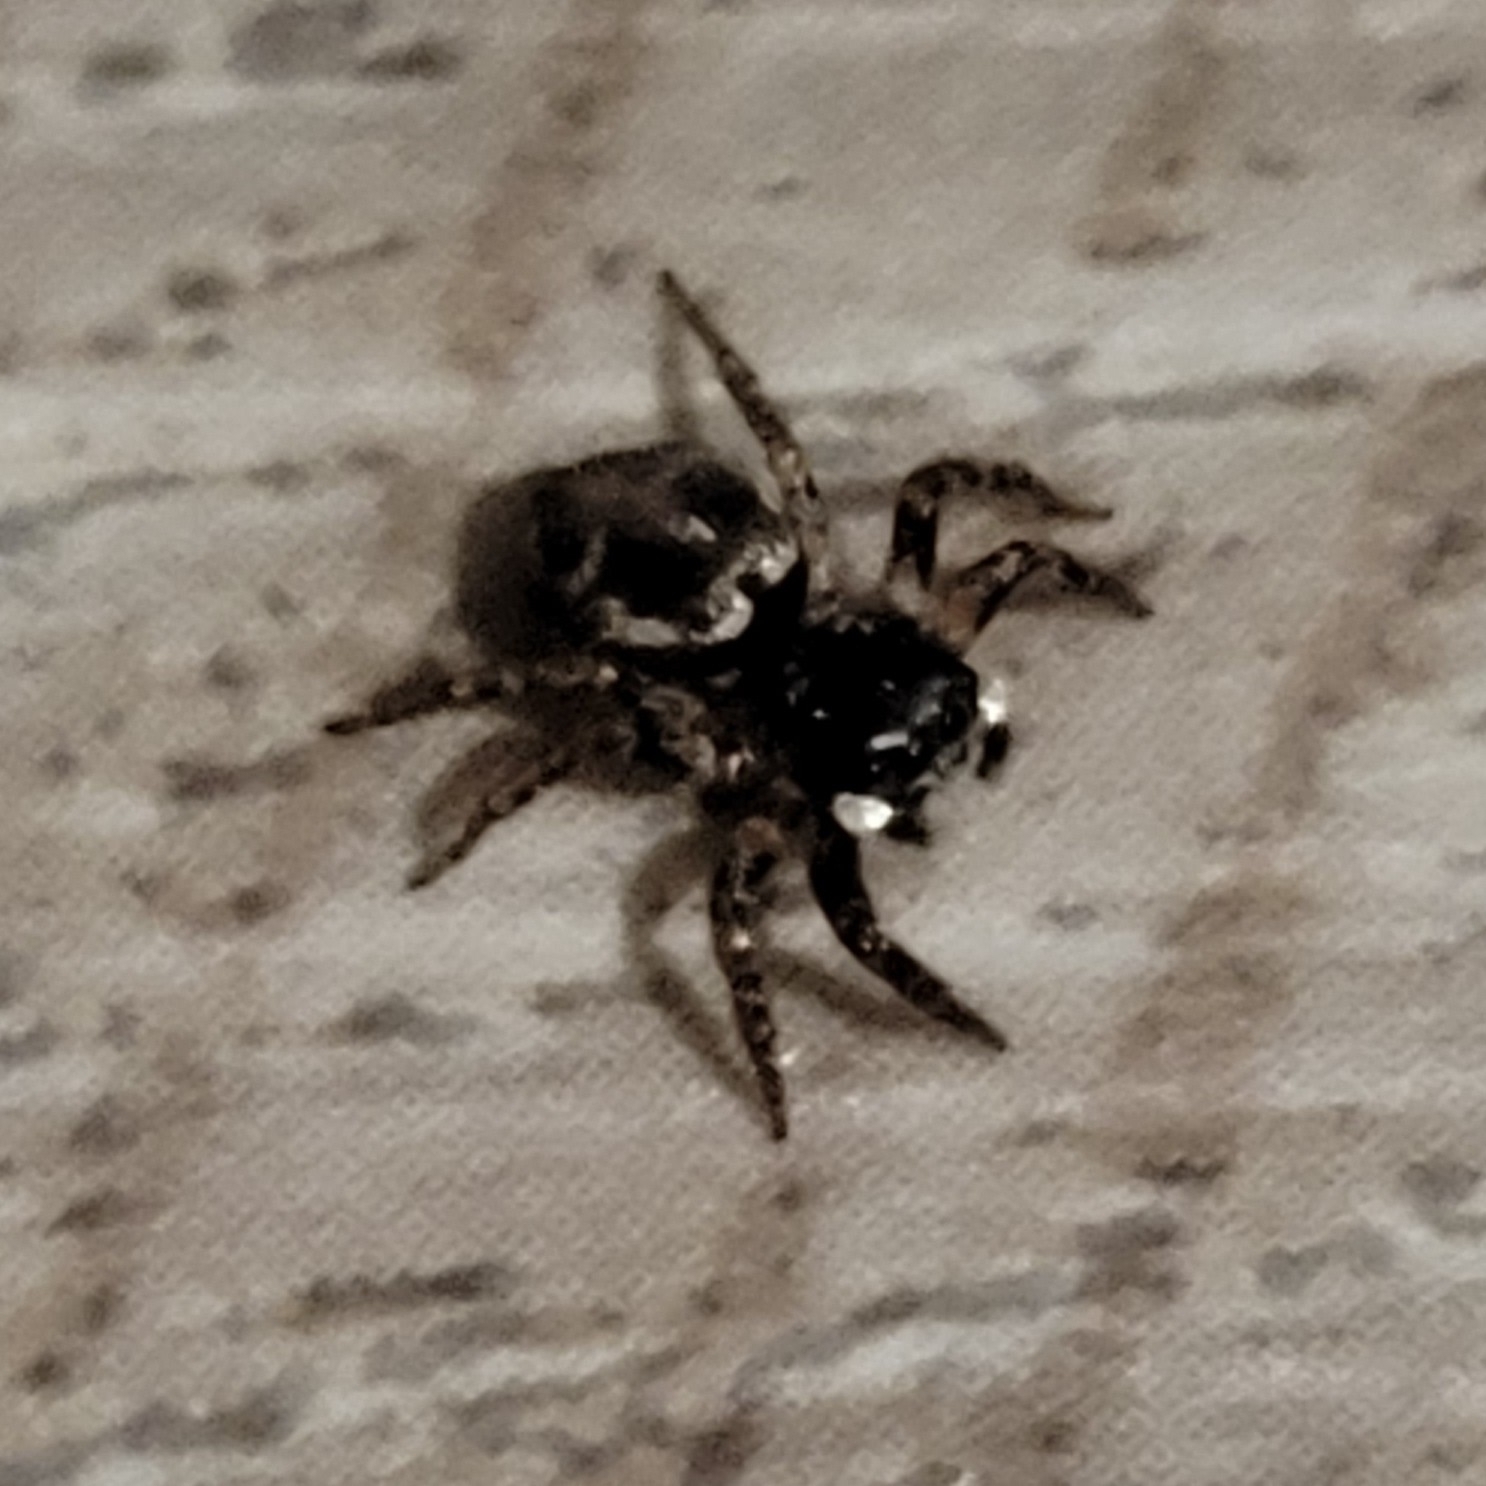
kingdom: Animalia
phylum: Arthropoda
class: Arachnida
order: Araneae
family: Salticidae
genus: Anasaitis
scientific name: Anasaitis canosa
